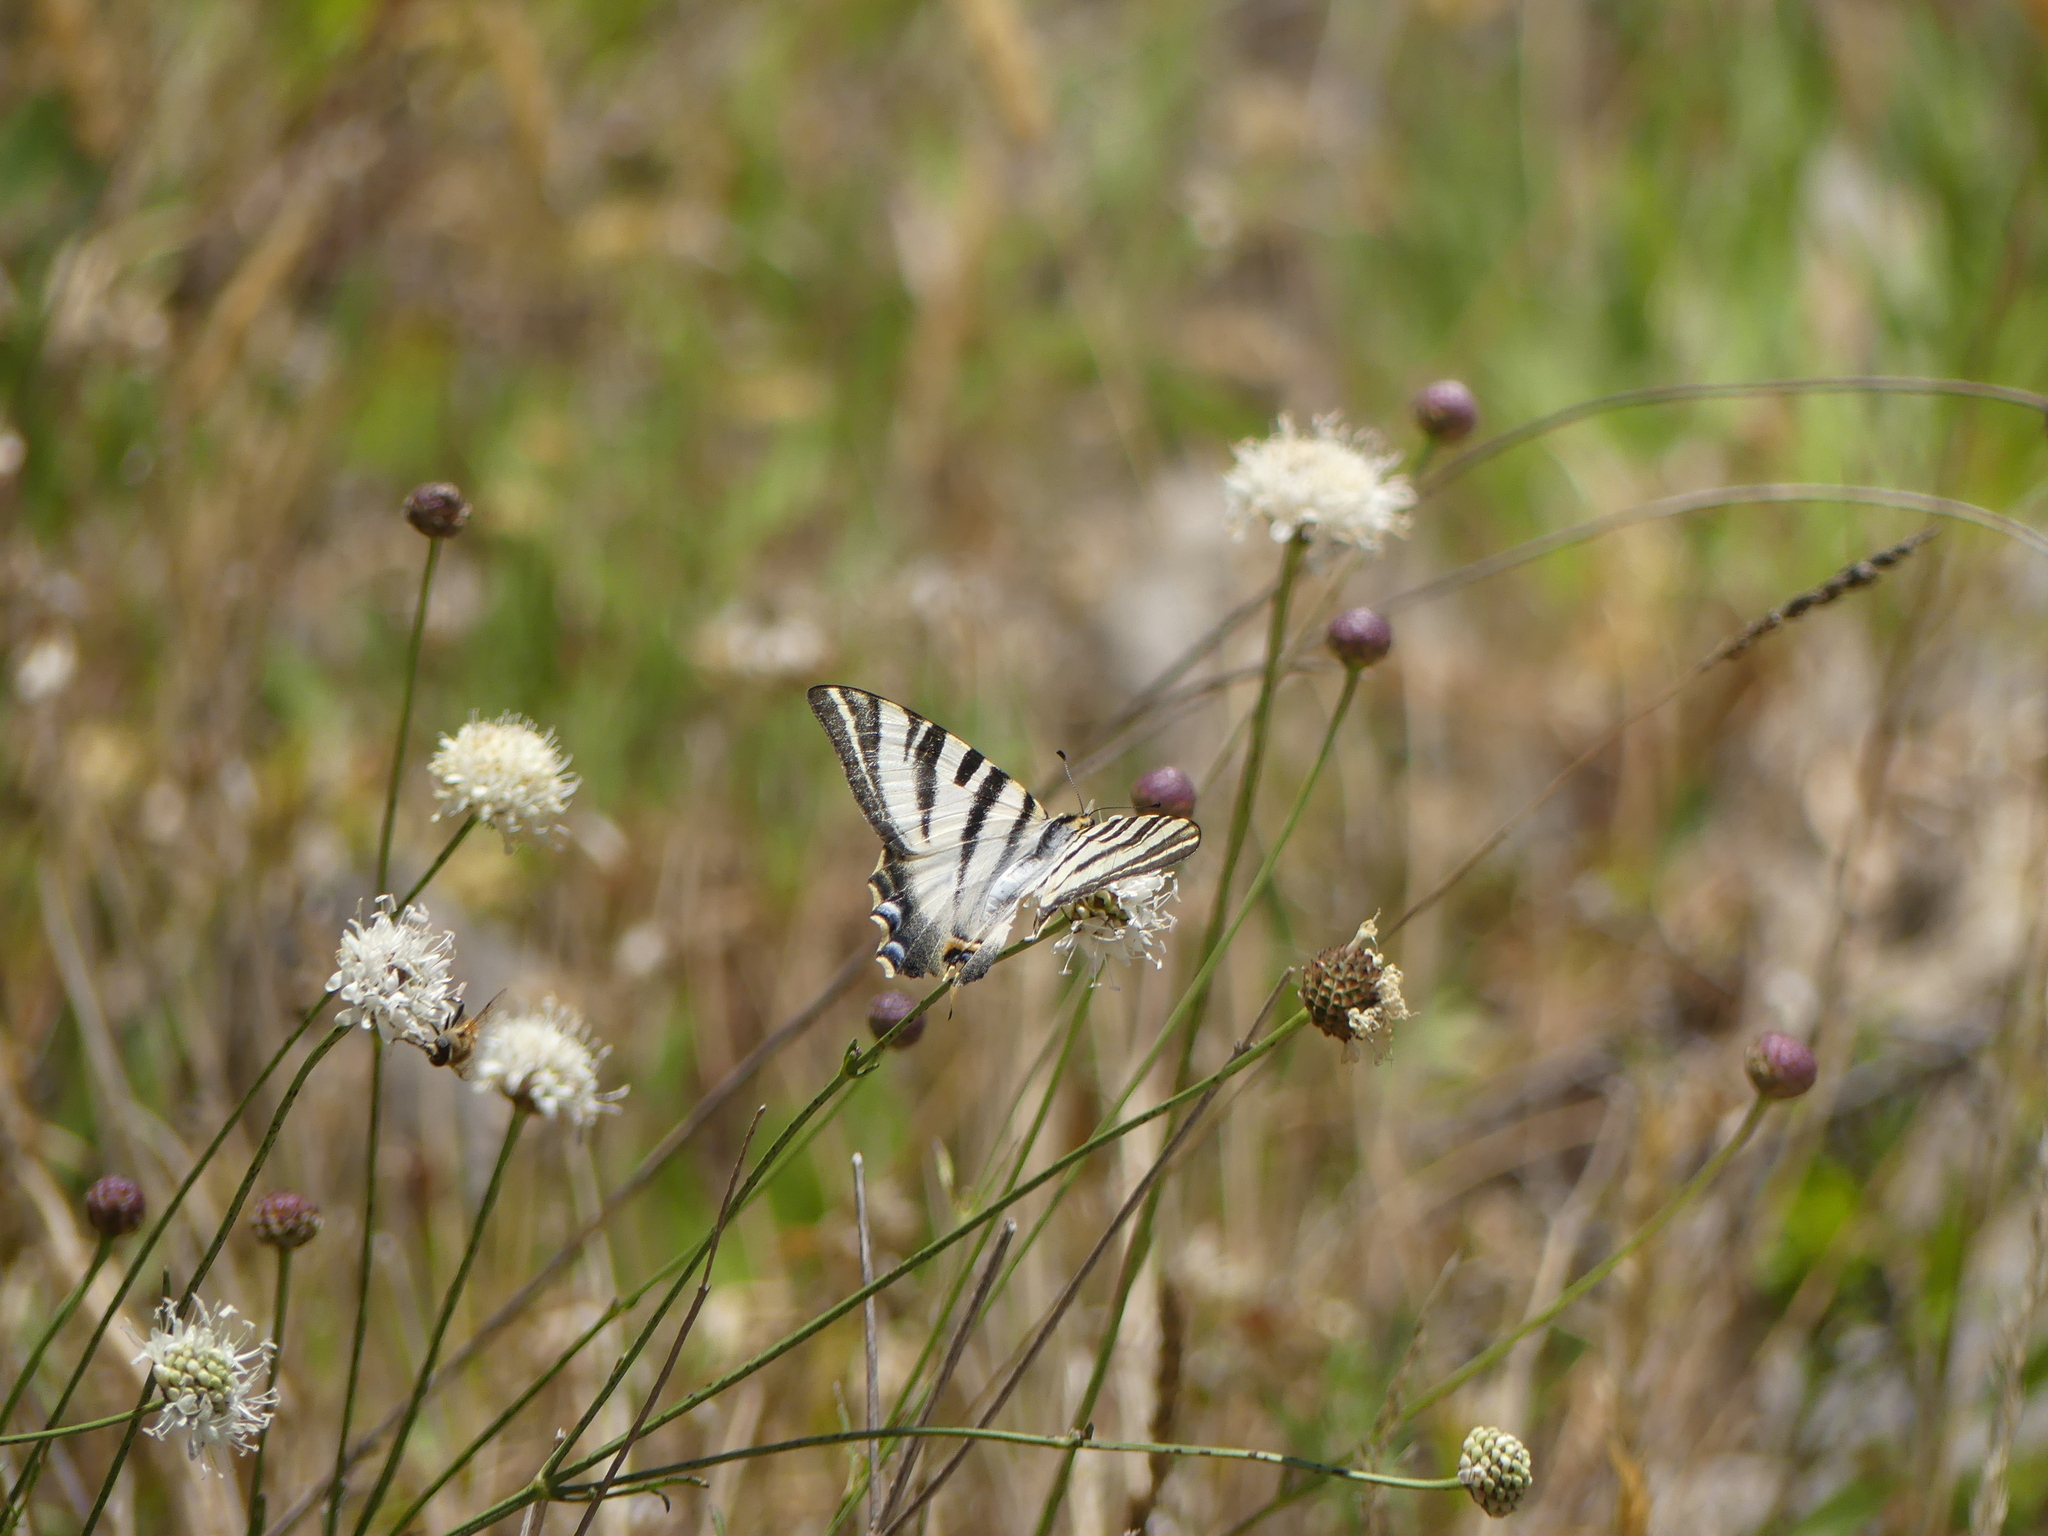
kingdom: Animalia
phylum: Arthropoda
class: Insecta
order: Lepidoptera
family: Papilionidae
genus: Iphiclides
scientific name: Iphiclides feisthamelii
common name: Iberian scarce swallowtail
